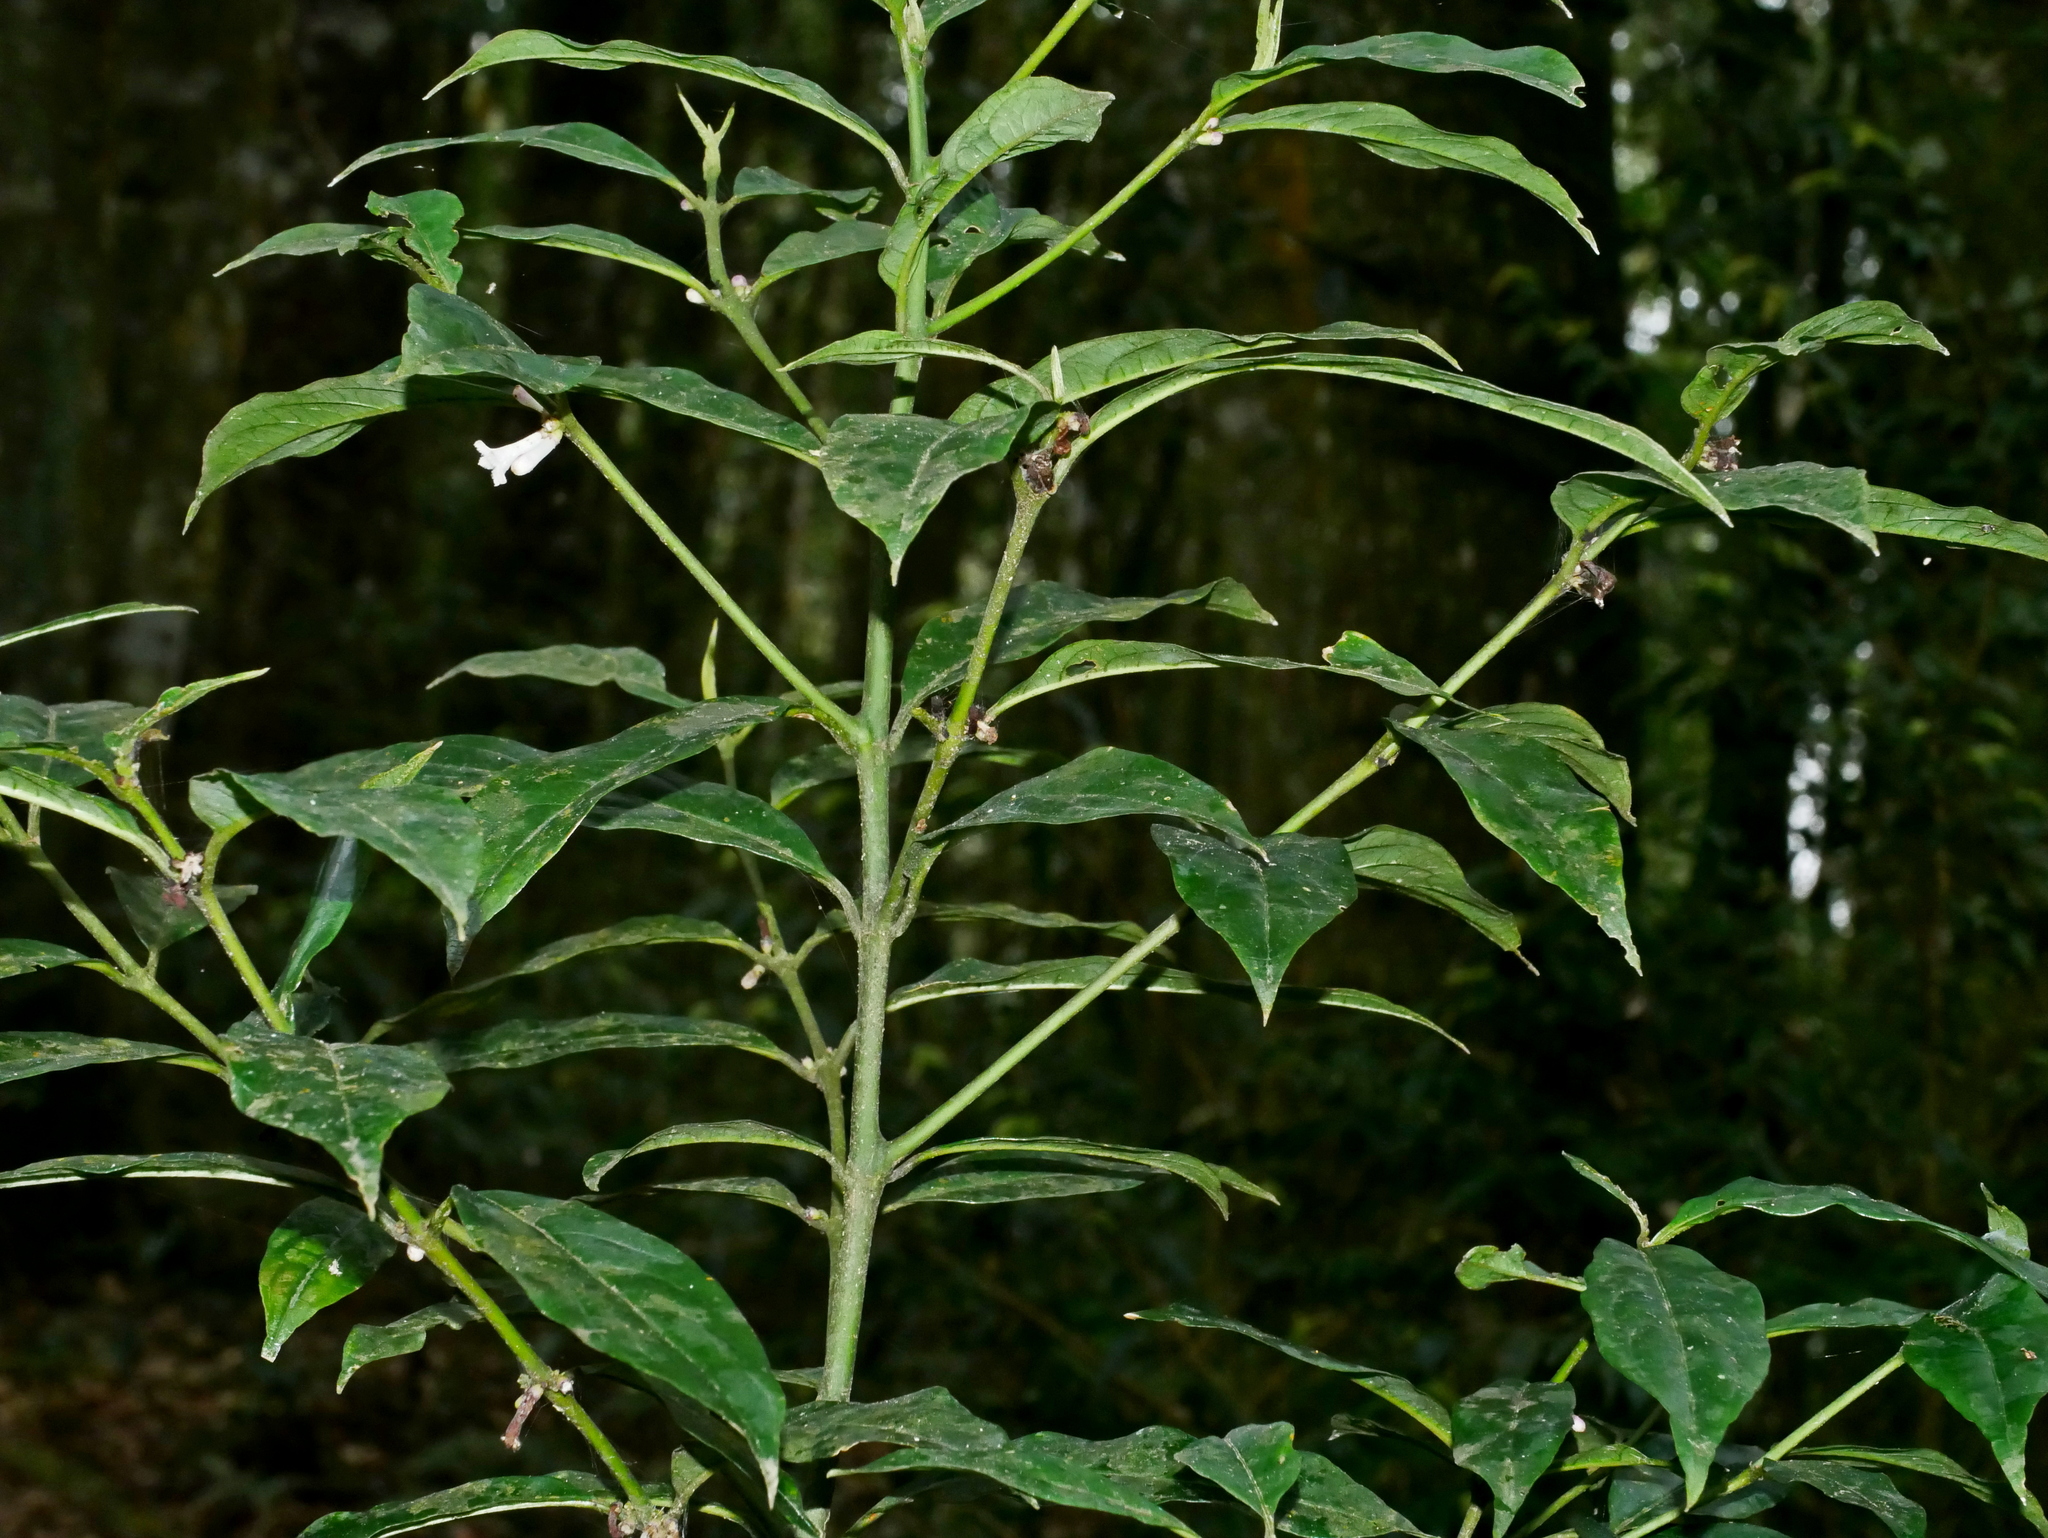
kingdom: Plantae
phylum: Tracheophyta
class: Magnoliopsida
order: Gentianales
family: Rubiaceae
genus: Lasianthus
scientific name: Lasianthus japonicus
